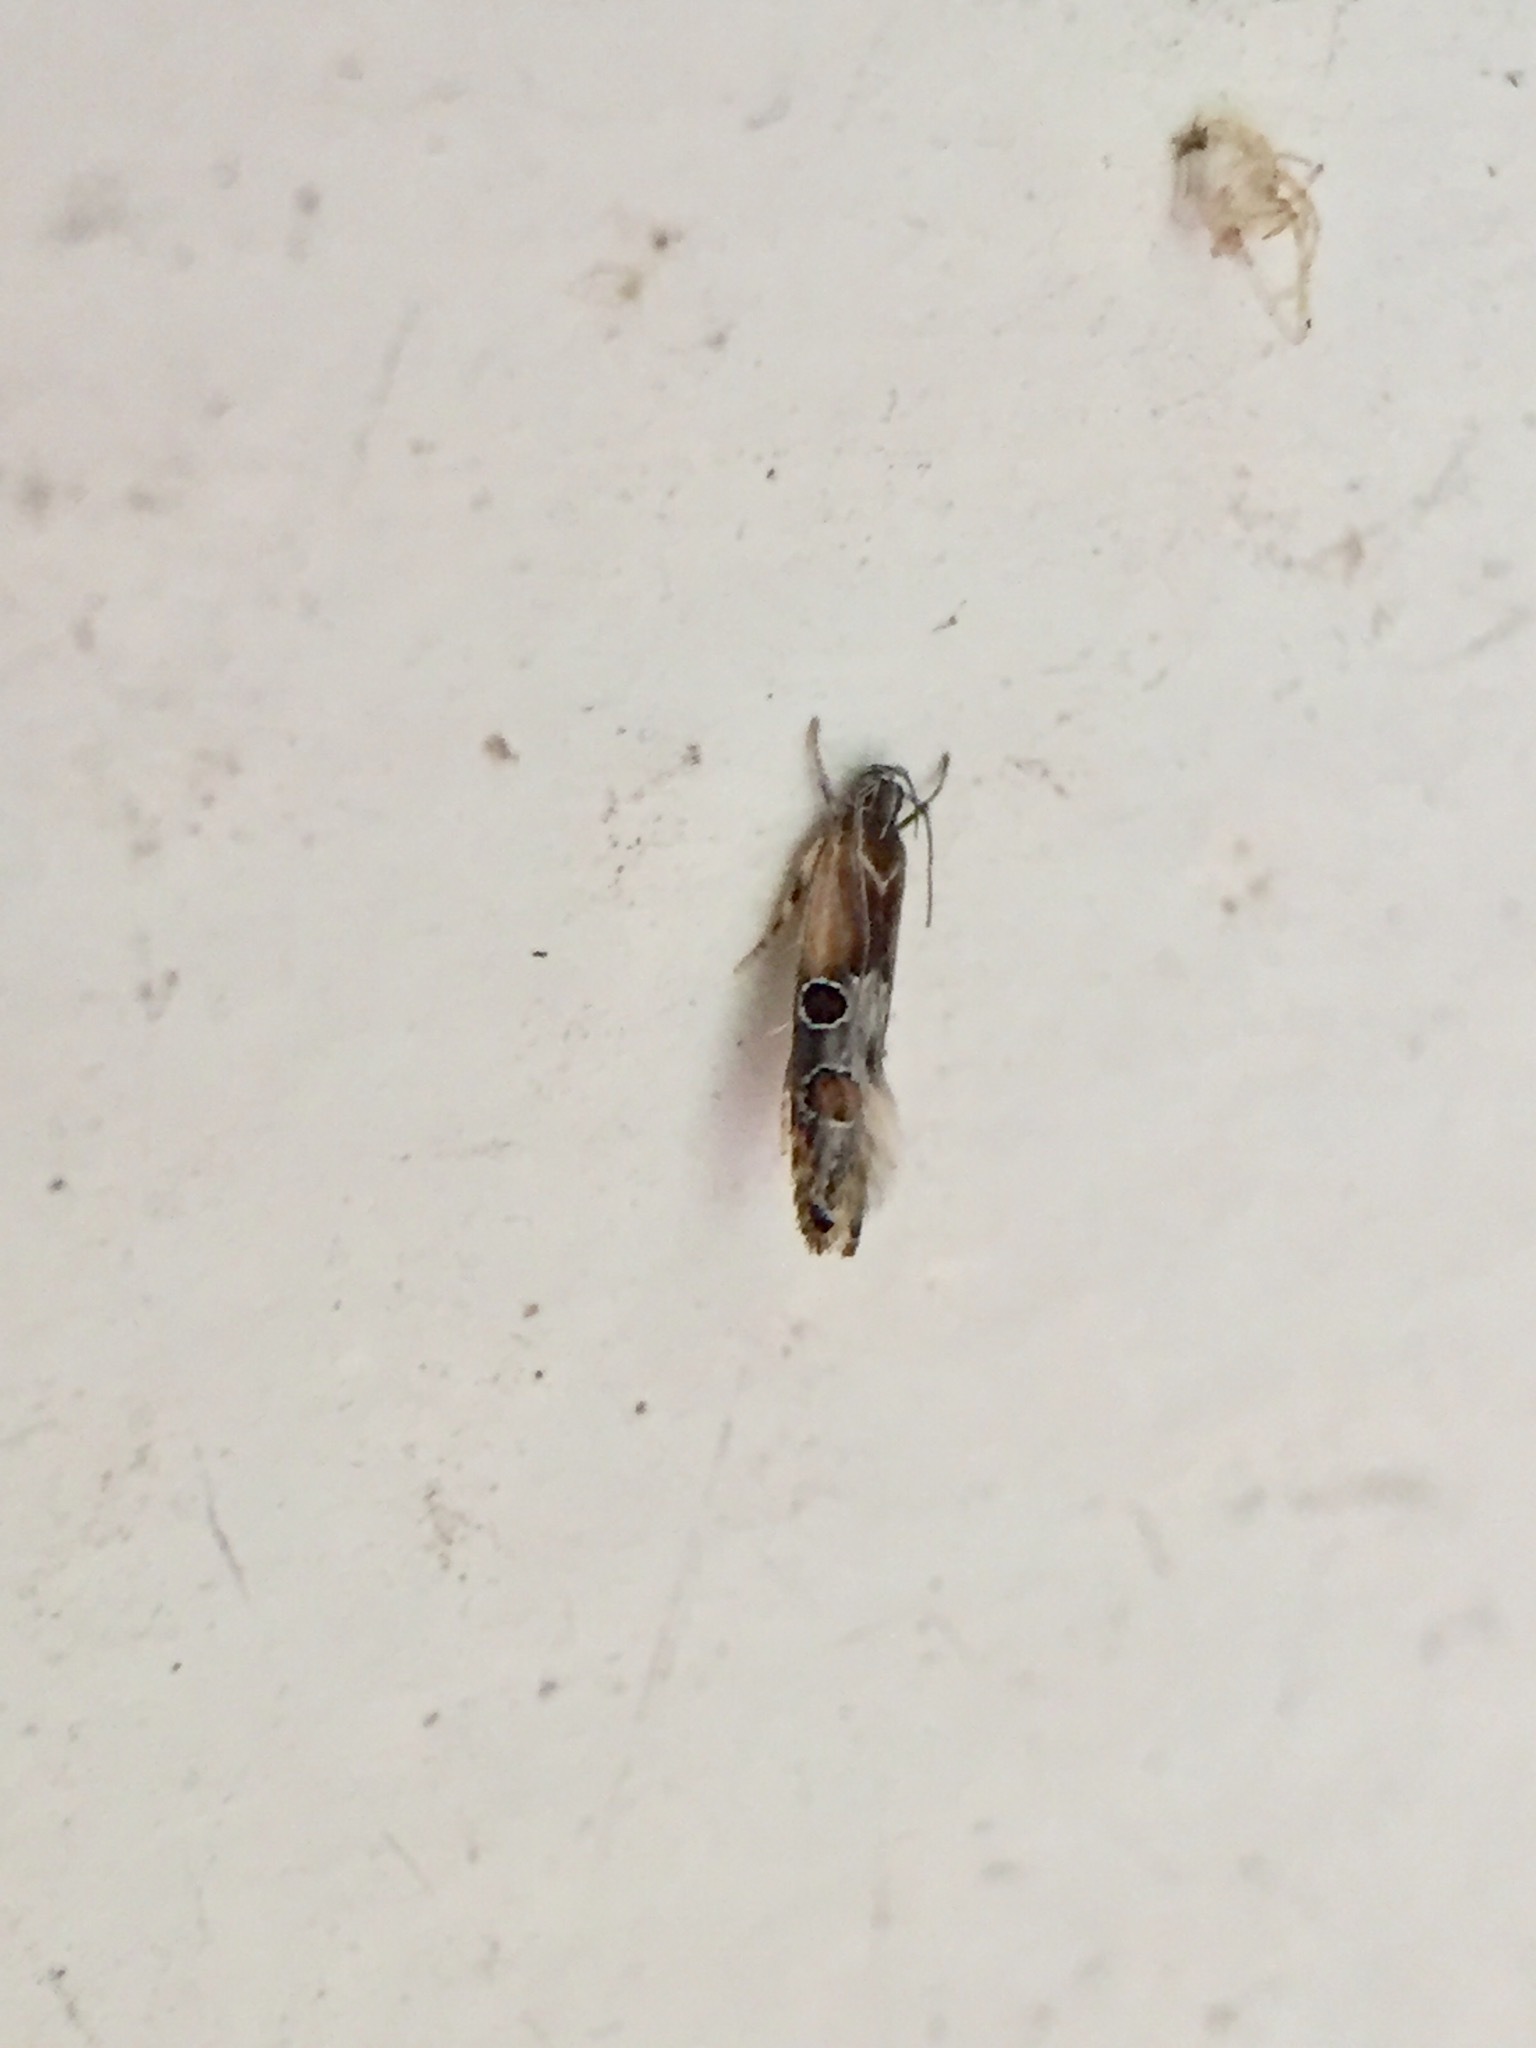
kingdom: Animalia
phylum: Arthropoda
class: Insecta
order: Lepidoptera
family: Elachistidae
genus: Circoxena
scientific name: Circoxena ditrocha
